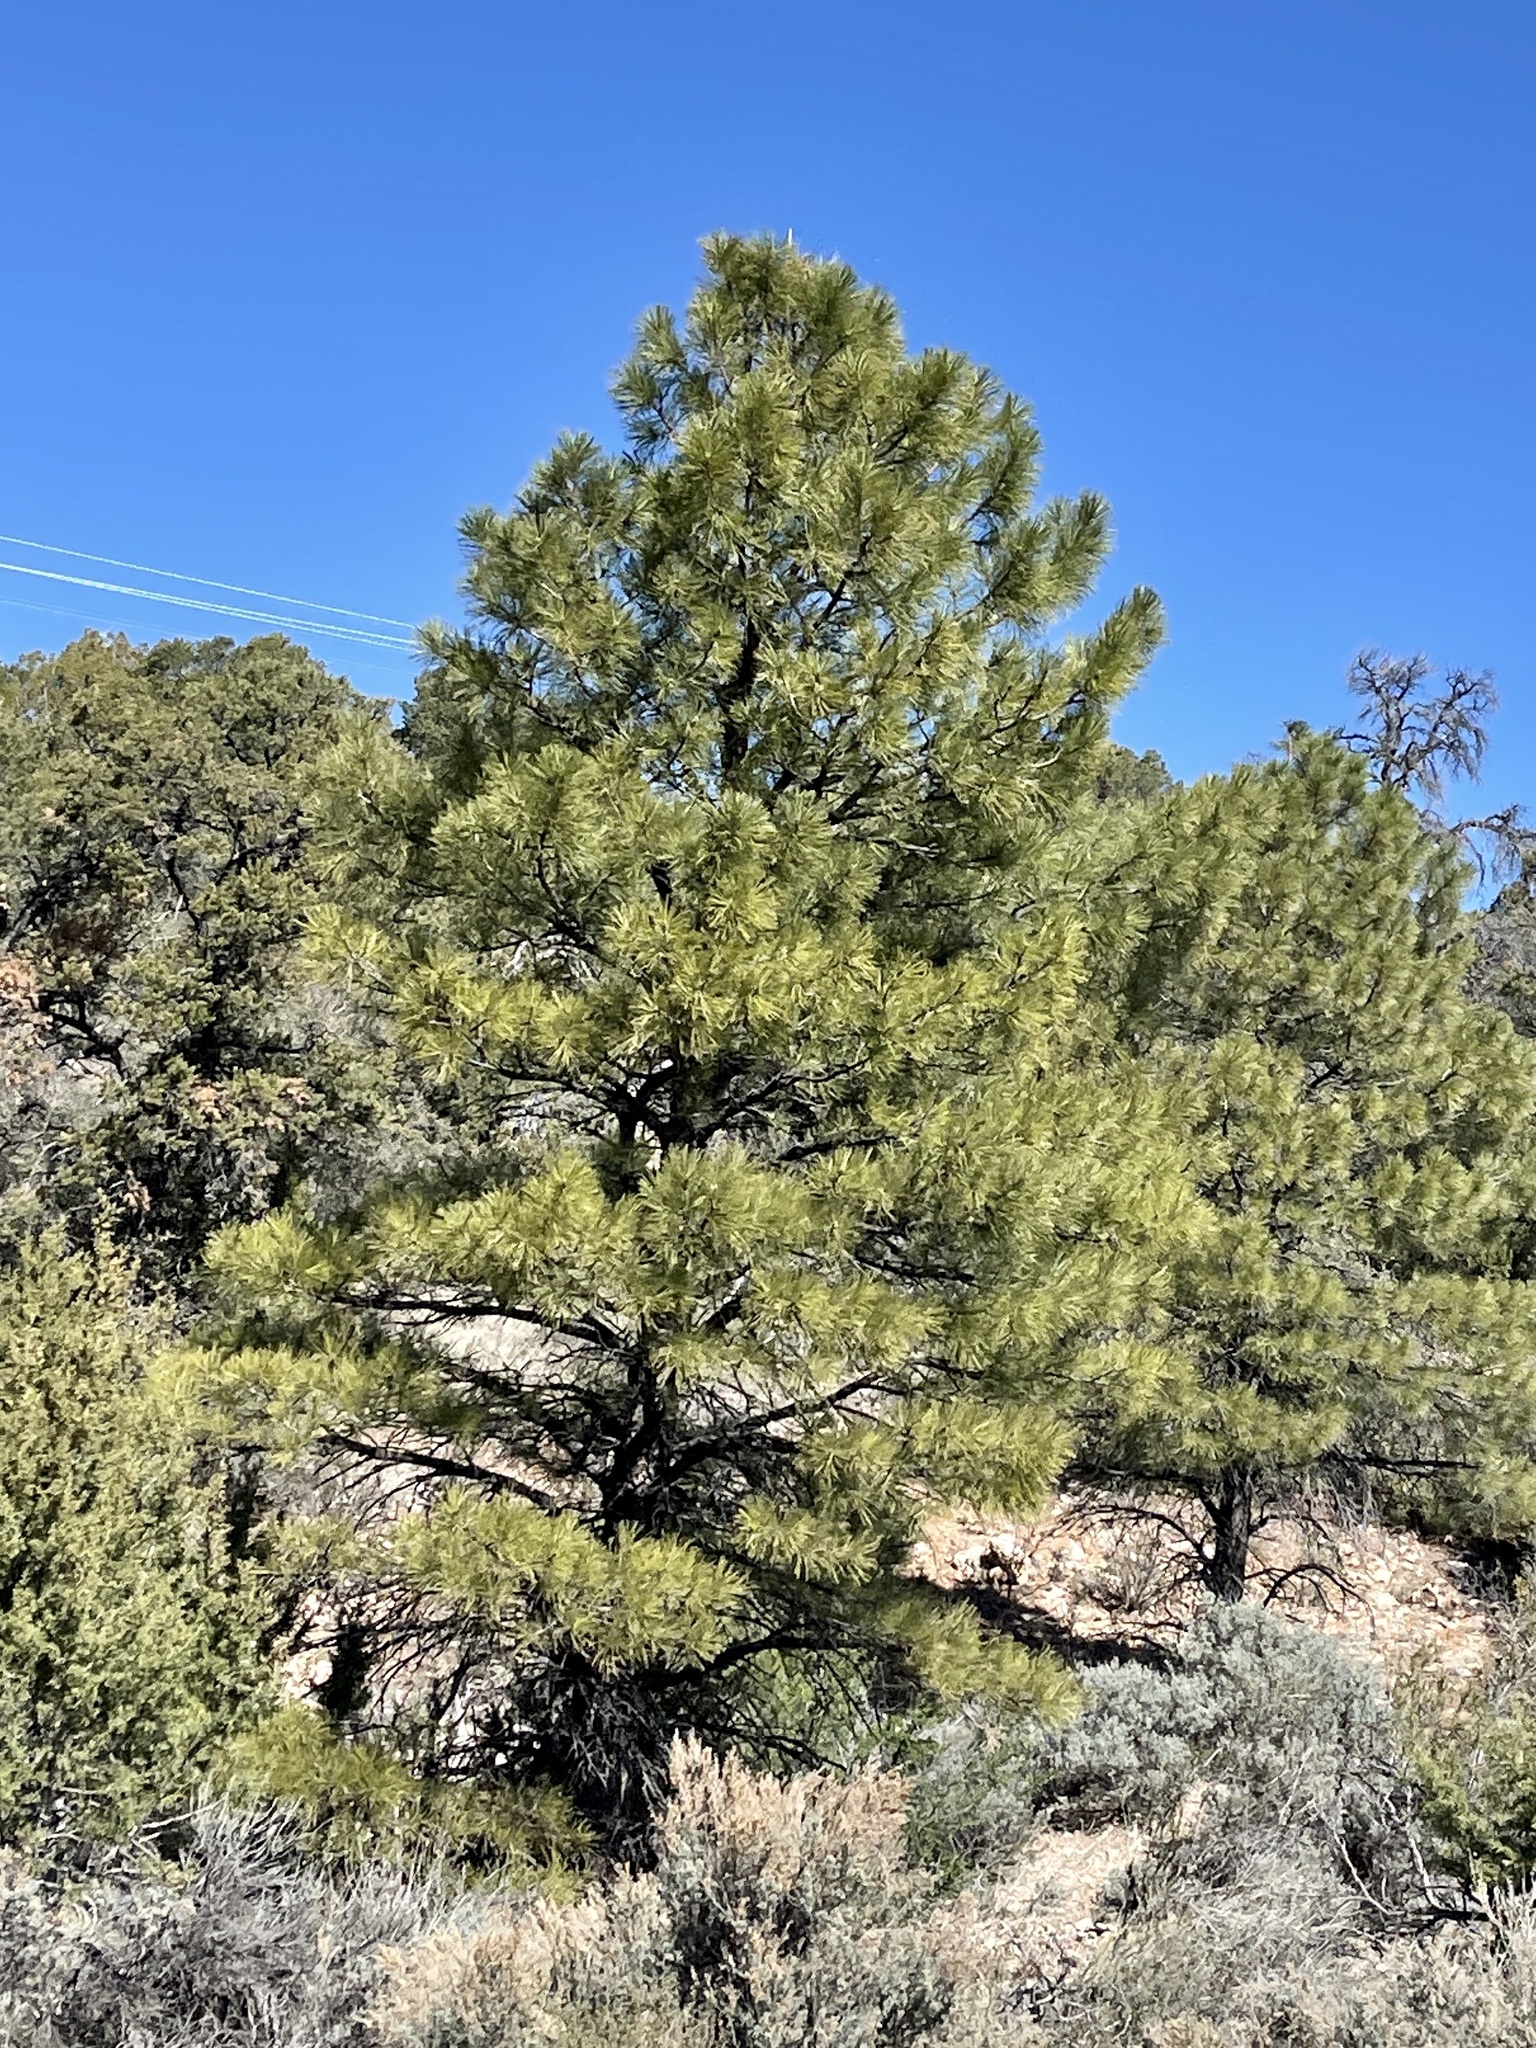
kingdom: Plantae
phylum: Tracheophyta
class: Pinopsida
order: Pinales
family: Pinaceae
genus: Pinus
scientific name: Pinus ponderosa
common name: Western yellow-pine
